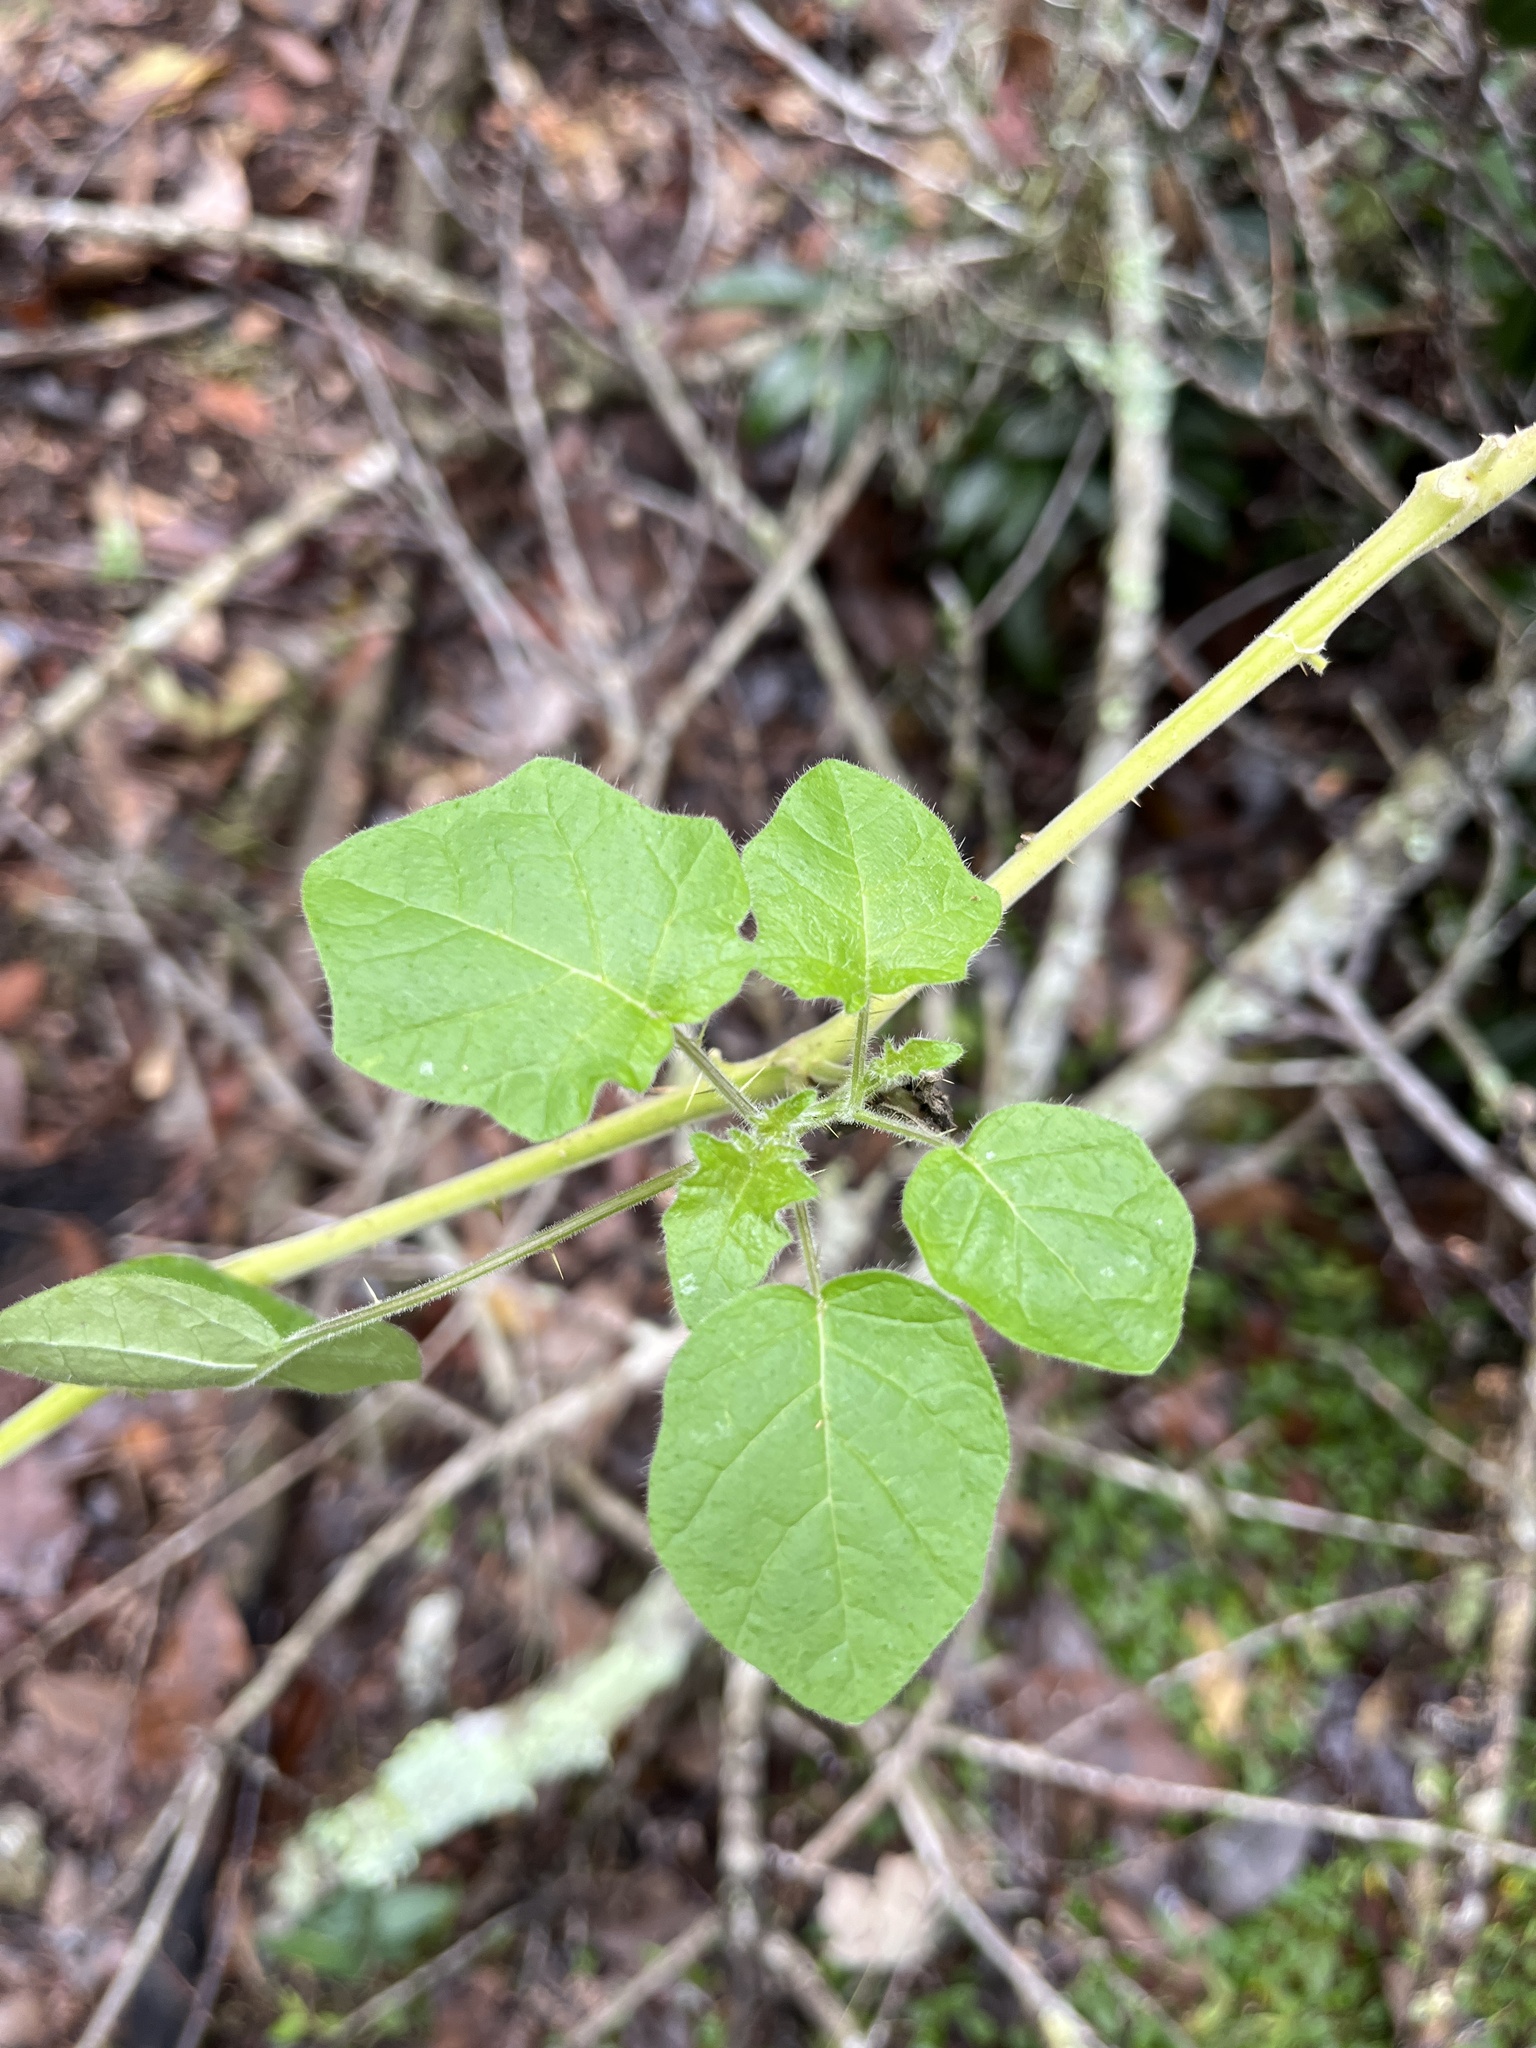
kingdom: Plantae
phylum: Tracheophyta
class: Magnoliopsida
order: Solanales
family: Solanaceae
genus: Solanum
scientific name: Solanum viarum
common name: Tropical soda apple
